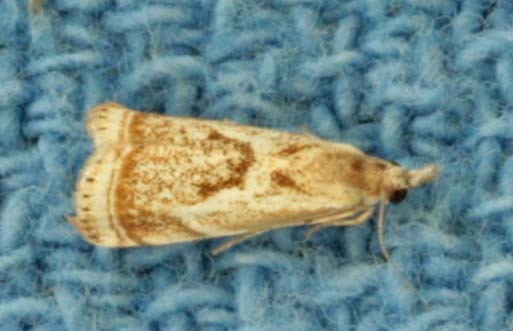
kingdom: Animalia
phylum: Arthropoda
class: Insecta
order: Lepidoptera
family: Crambidae
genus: Microcrambus
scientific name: Microcrambus elegans
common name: Elegant grass-veneer
